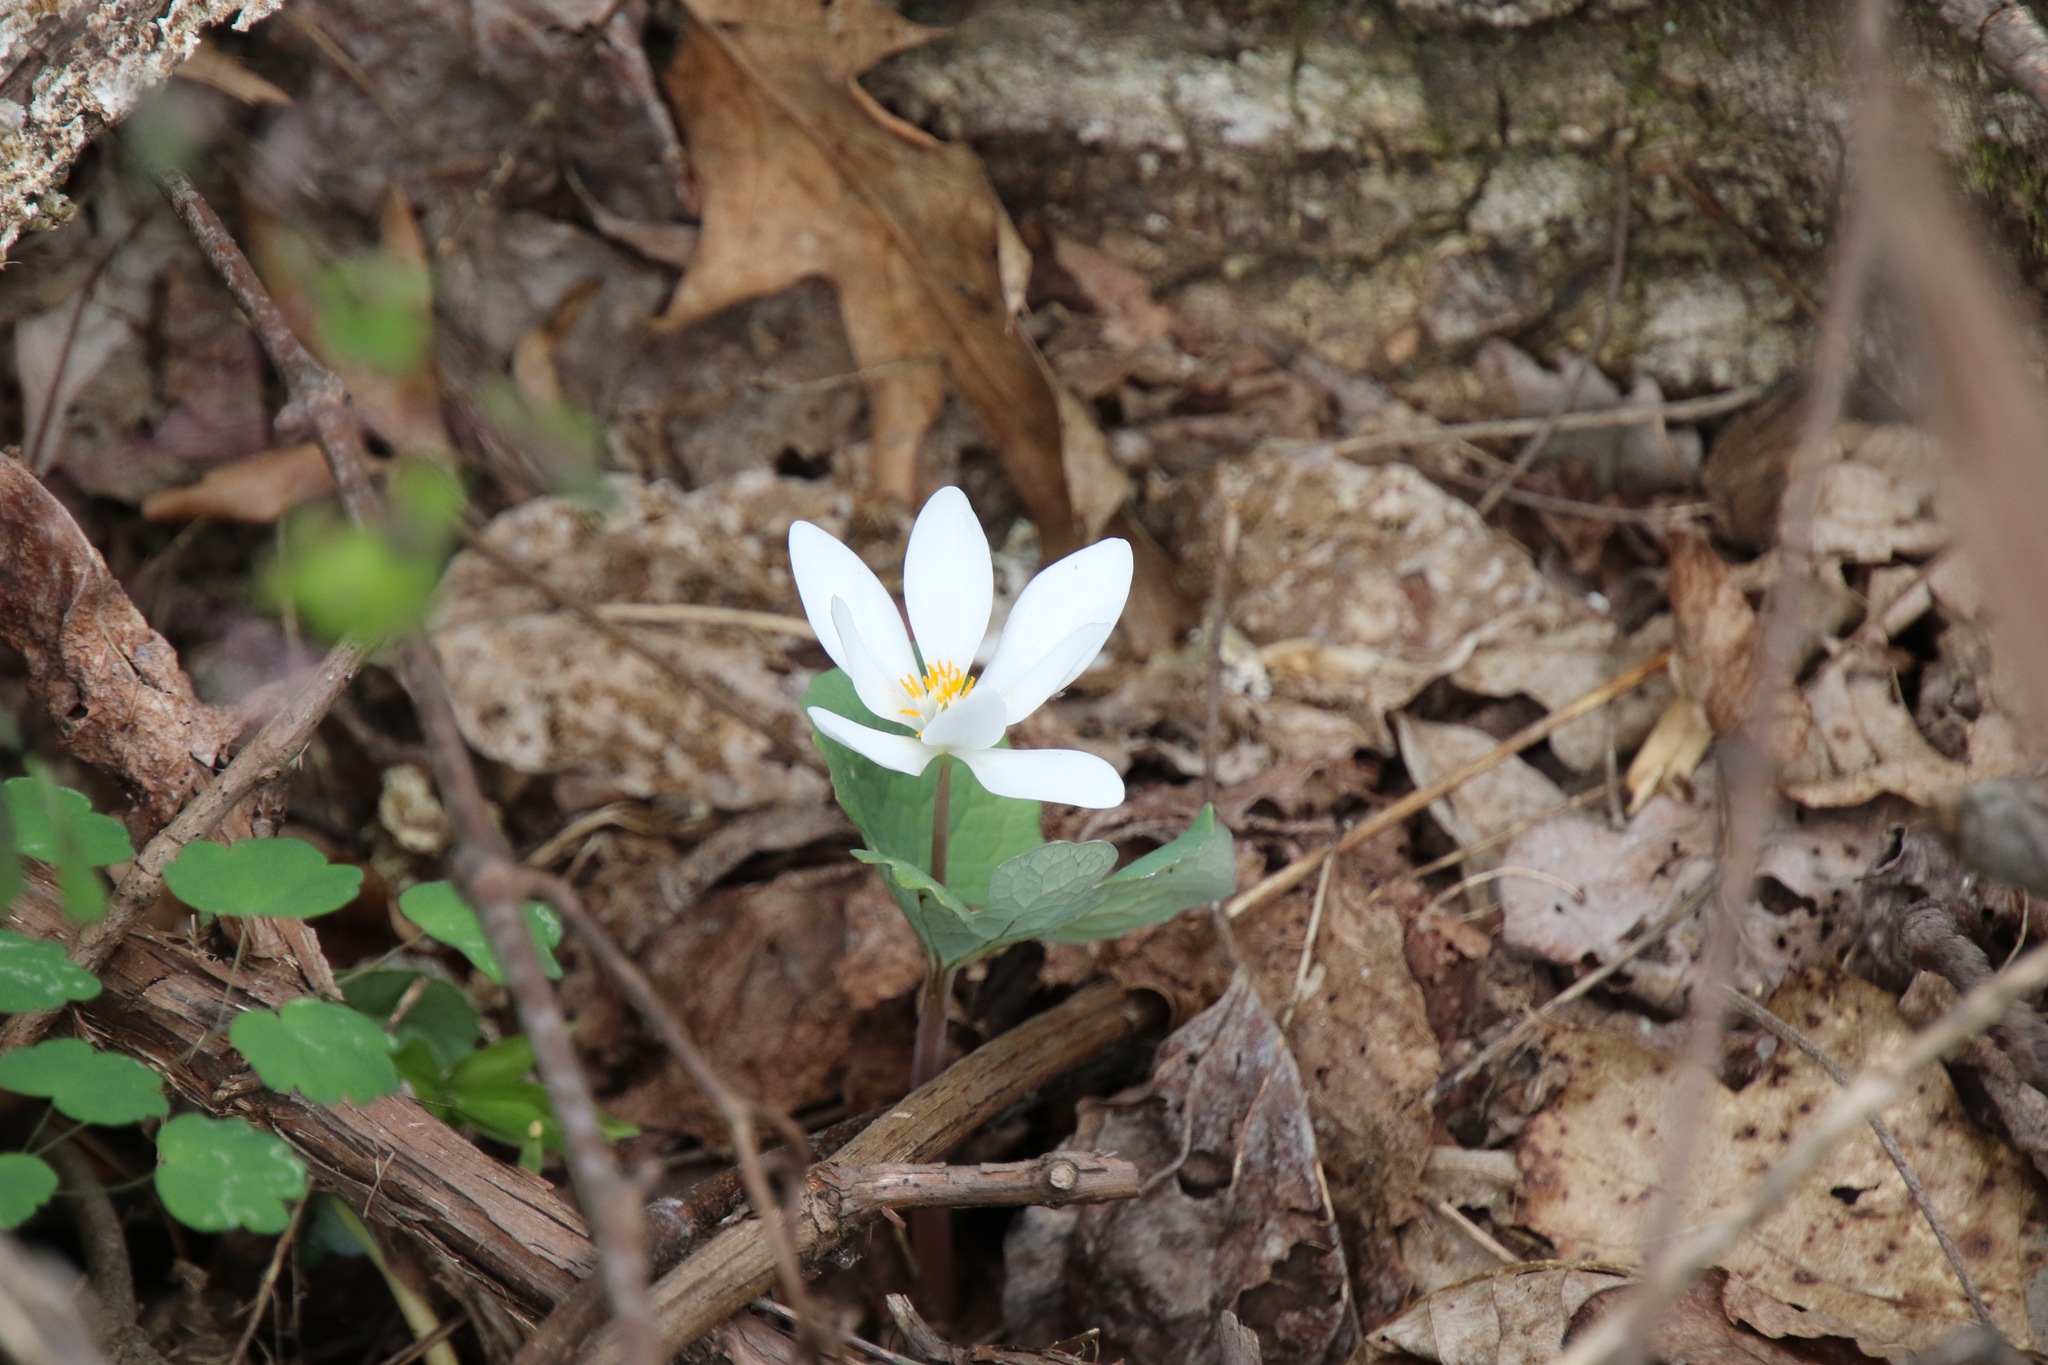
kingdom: Plantae
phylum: Tracheophyta
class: Magnoliopsida
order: Ranunculales
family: Papaveraceae
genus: Sanguinaria
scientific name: Sanguinaria canadensis
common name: Bloodroot
